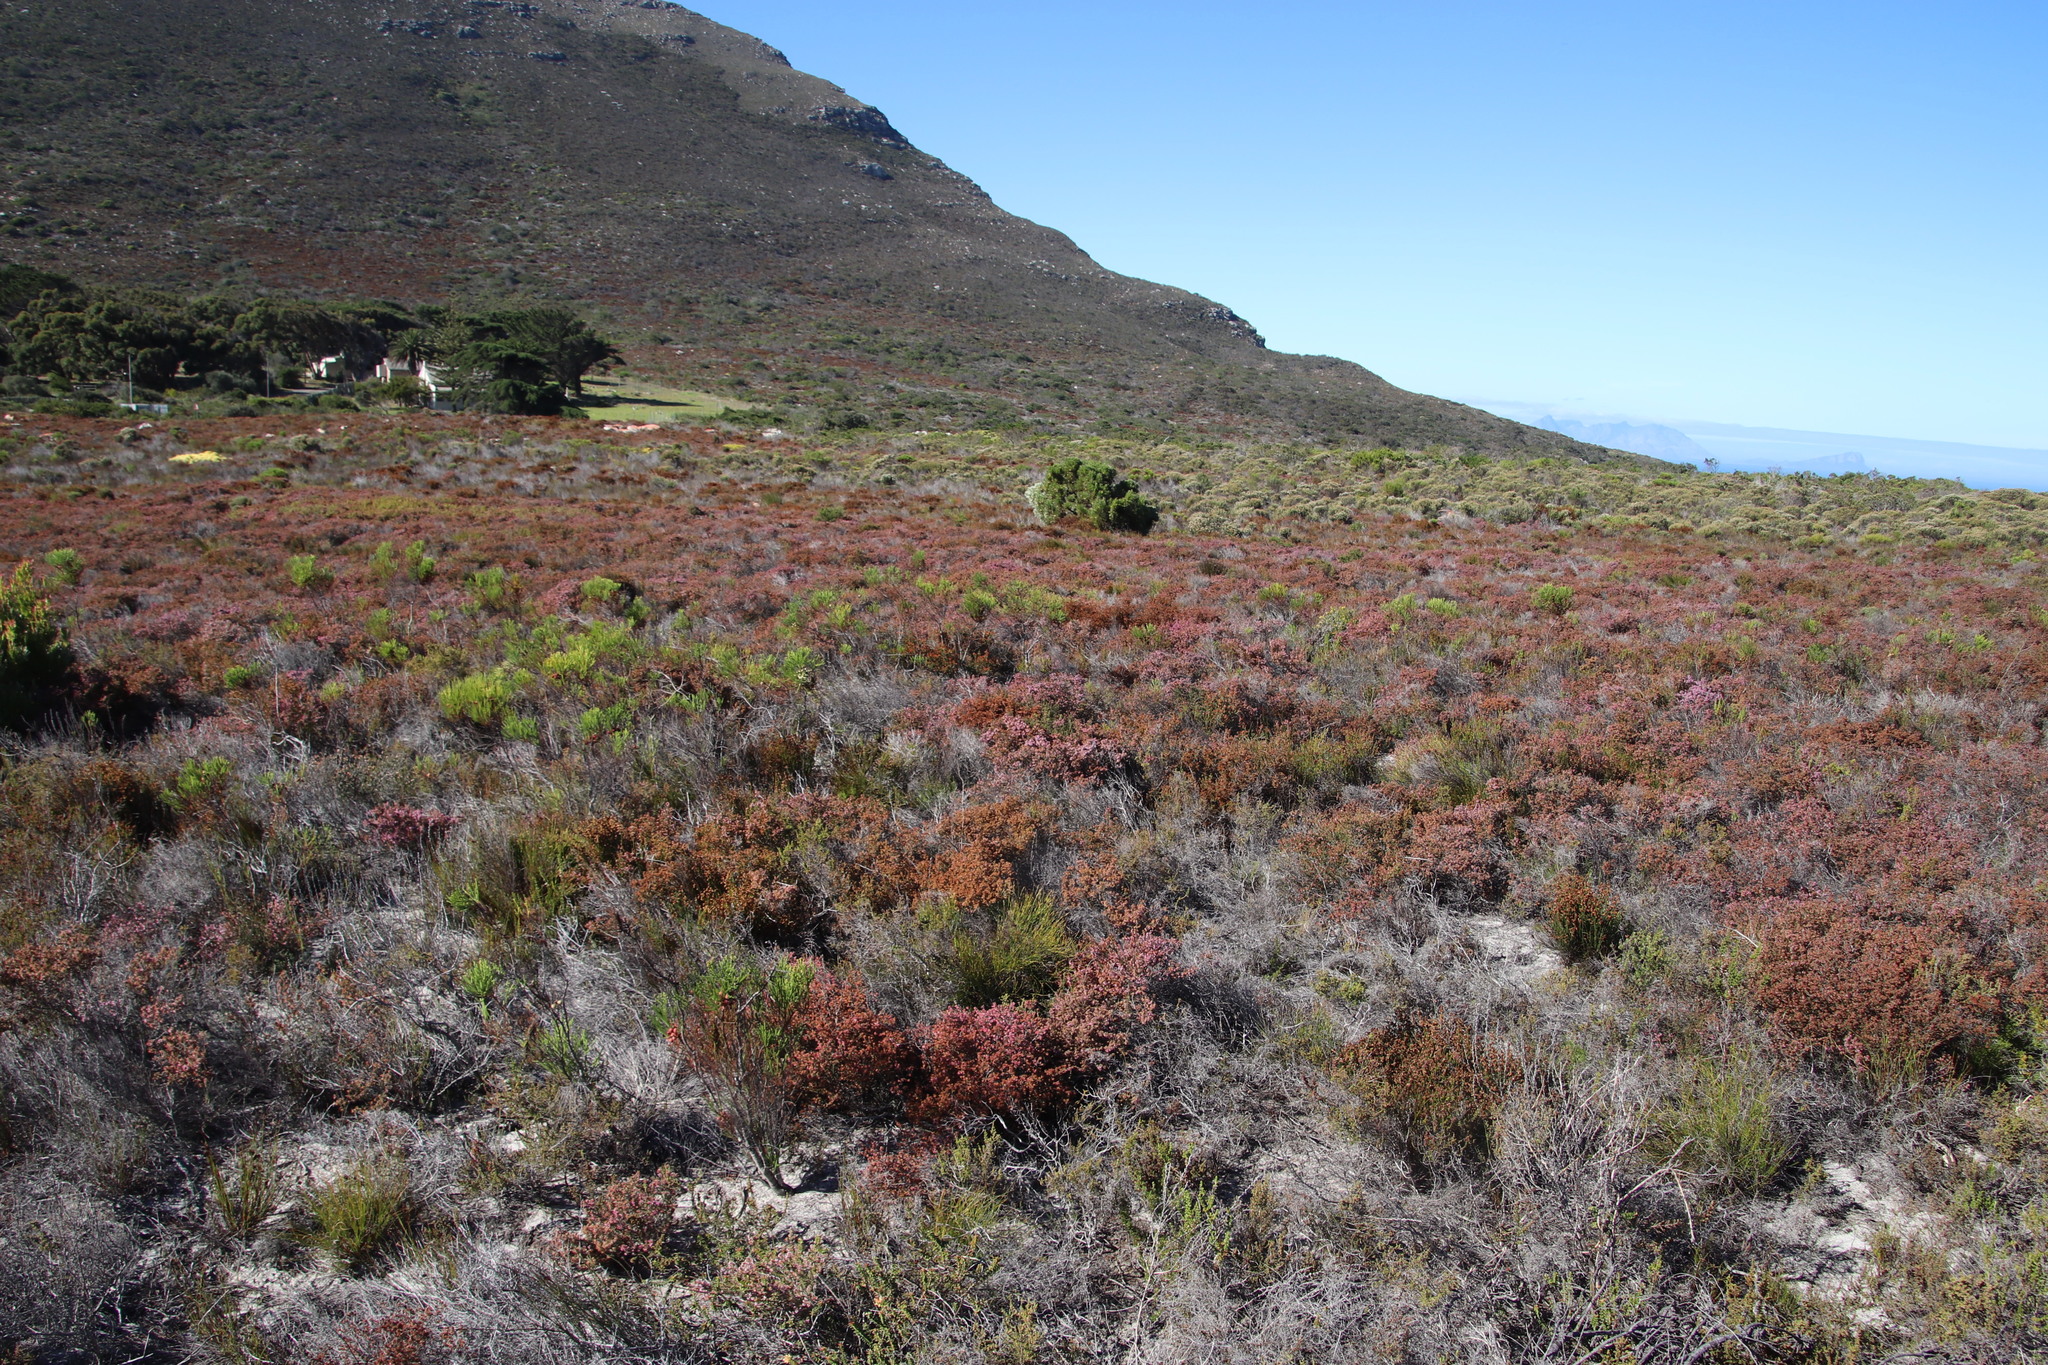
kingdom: Plantae
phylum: Tracheophyta
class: Magnoliopsida
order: Ericales
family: Ericaceae
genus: Erica
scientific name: Erica ericoides
